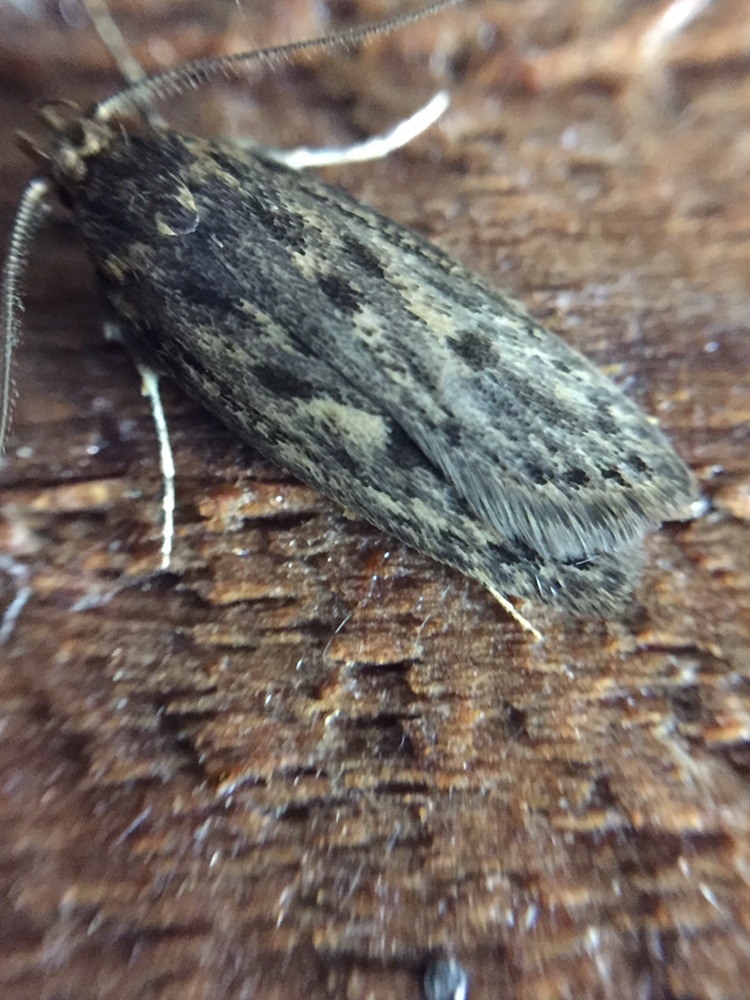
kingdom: Animalia
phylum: Arthropoda
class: Insecta
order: Lepidoptera
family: Oecophoridae
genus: Hofmannophila
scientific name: Hofmannophila pseudospretella
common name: Brown house moth
